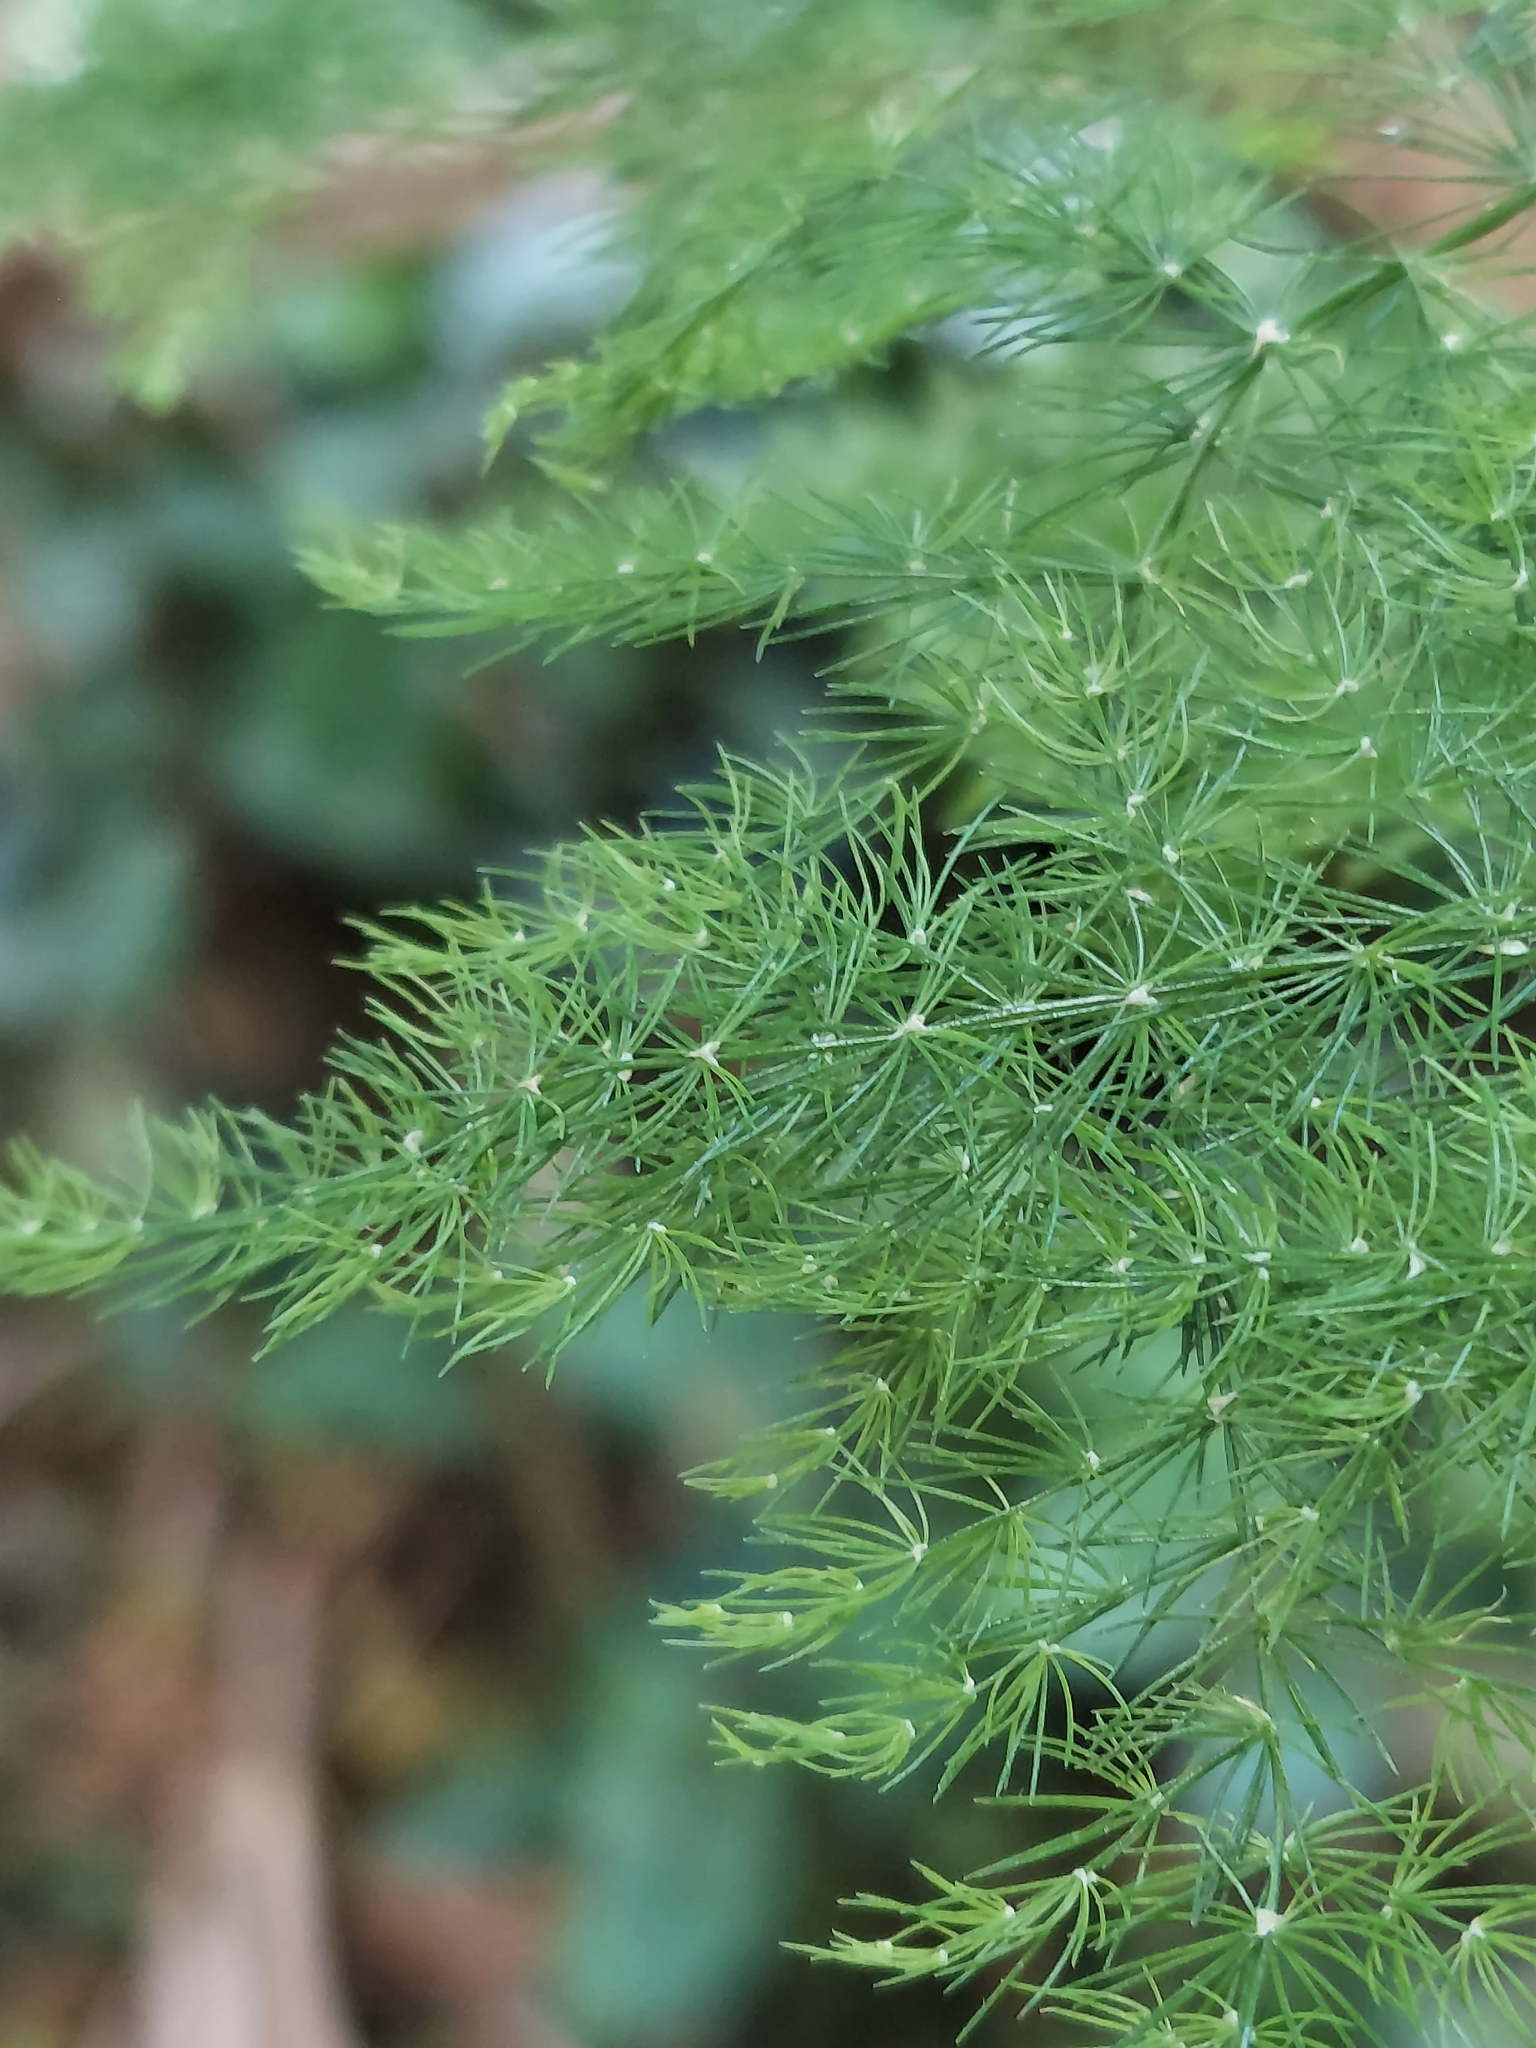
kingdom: Plantae
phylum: Tracheophyta
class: Liliopsida
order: Asparagales
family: Asparagaceae
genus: Asparagus
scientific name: Asparagus setaceus
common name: Common asparagus fern
